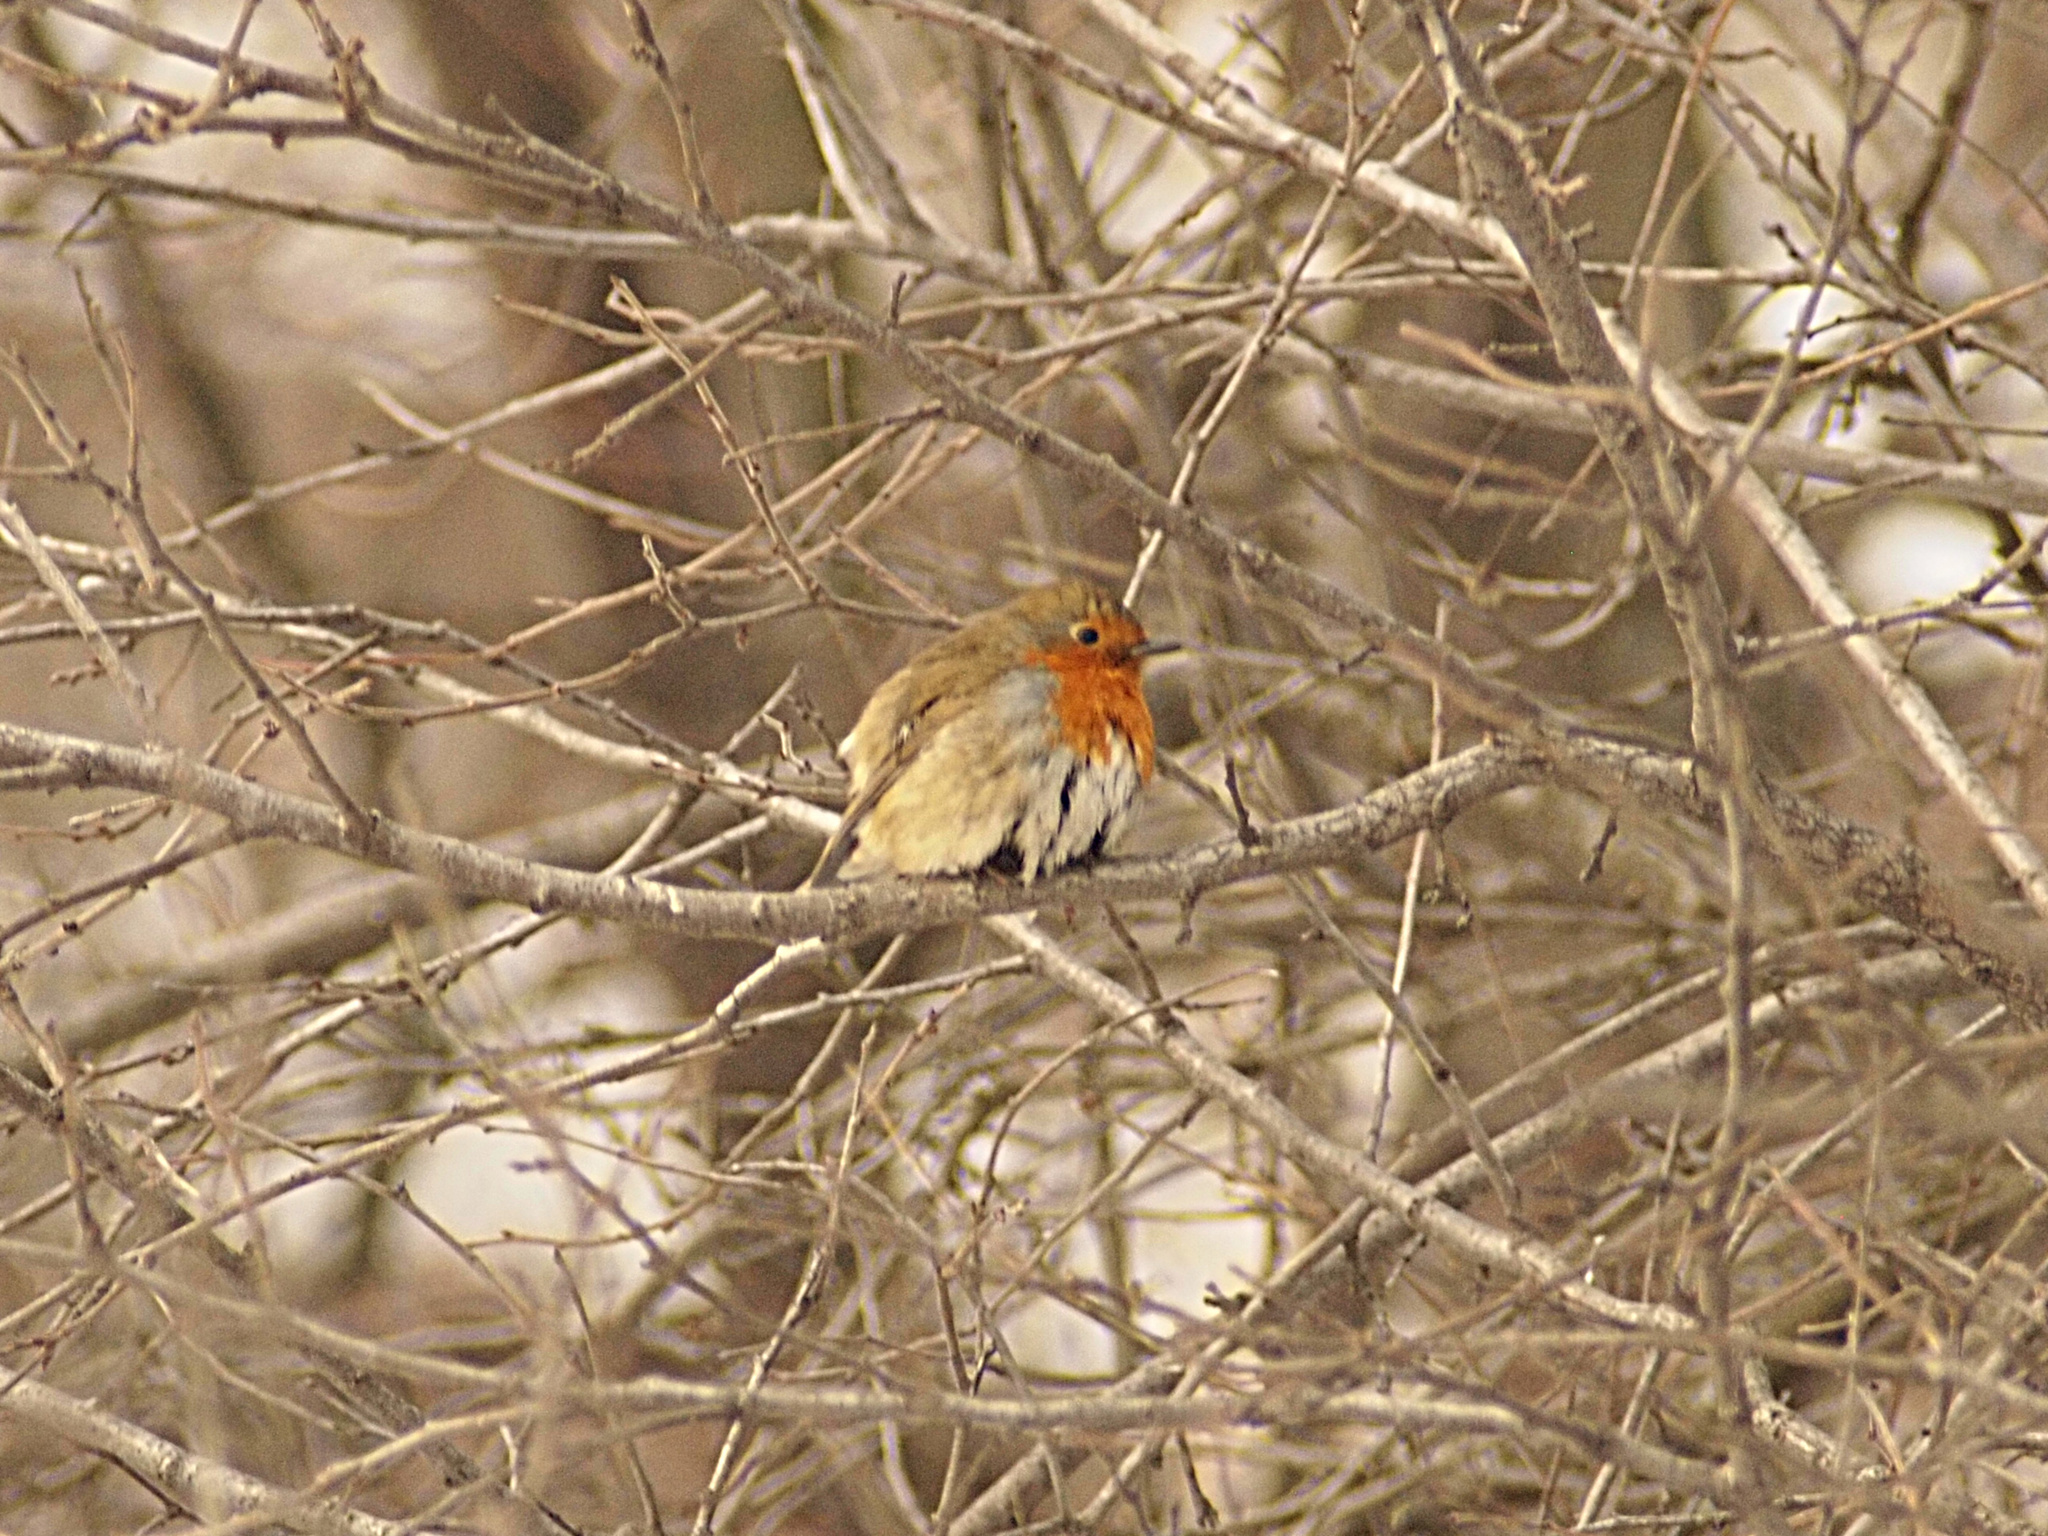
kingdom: Animalia
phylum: Chordata
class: Aves
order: Passeriformes
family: Muscicapidae
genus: Erithacus
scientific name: Erithacus rubecula
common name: European robin
